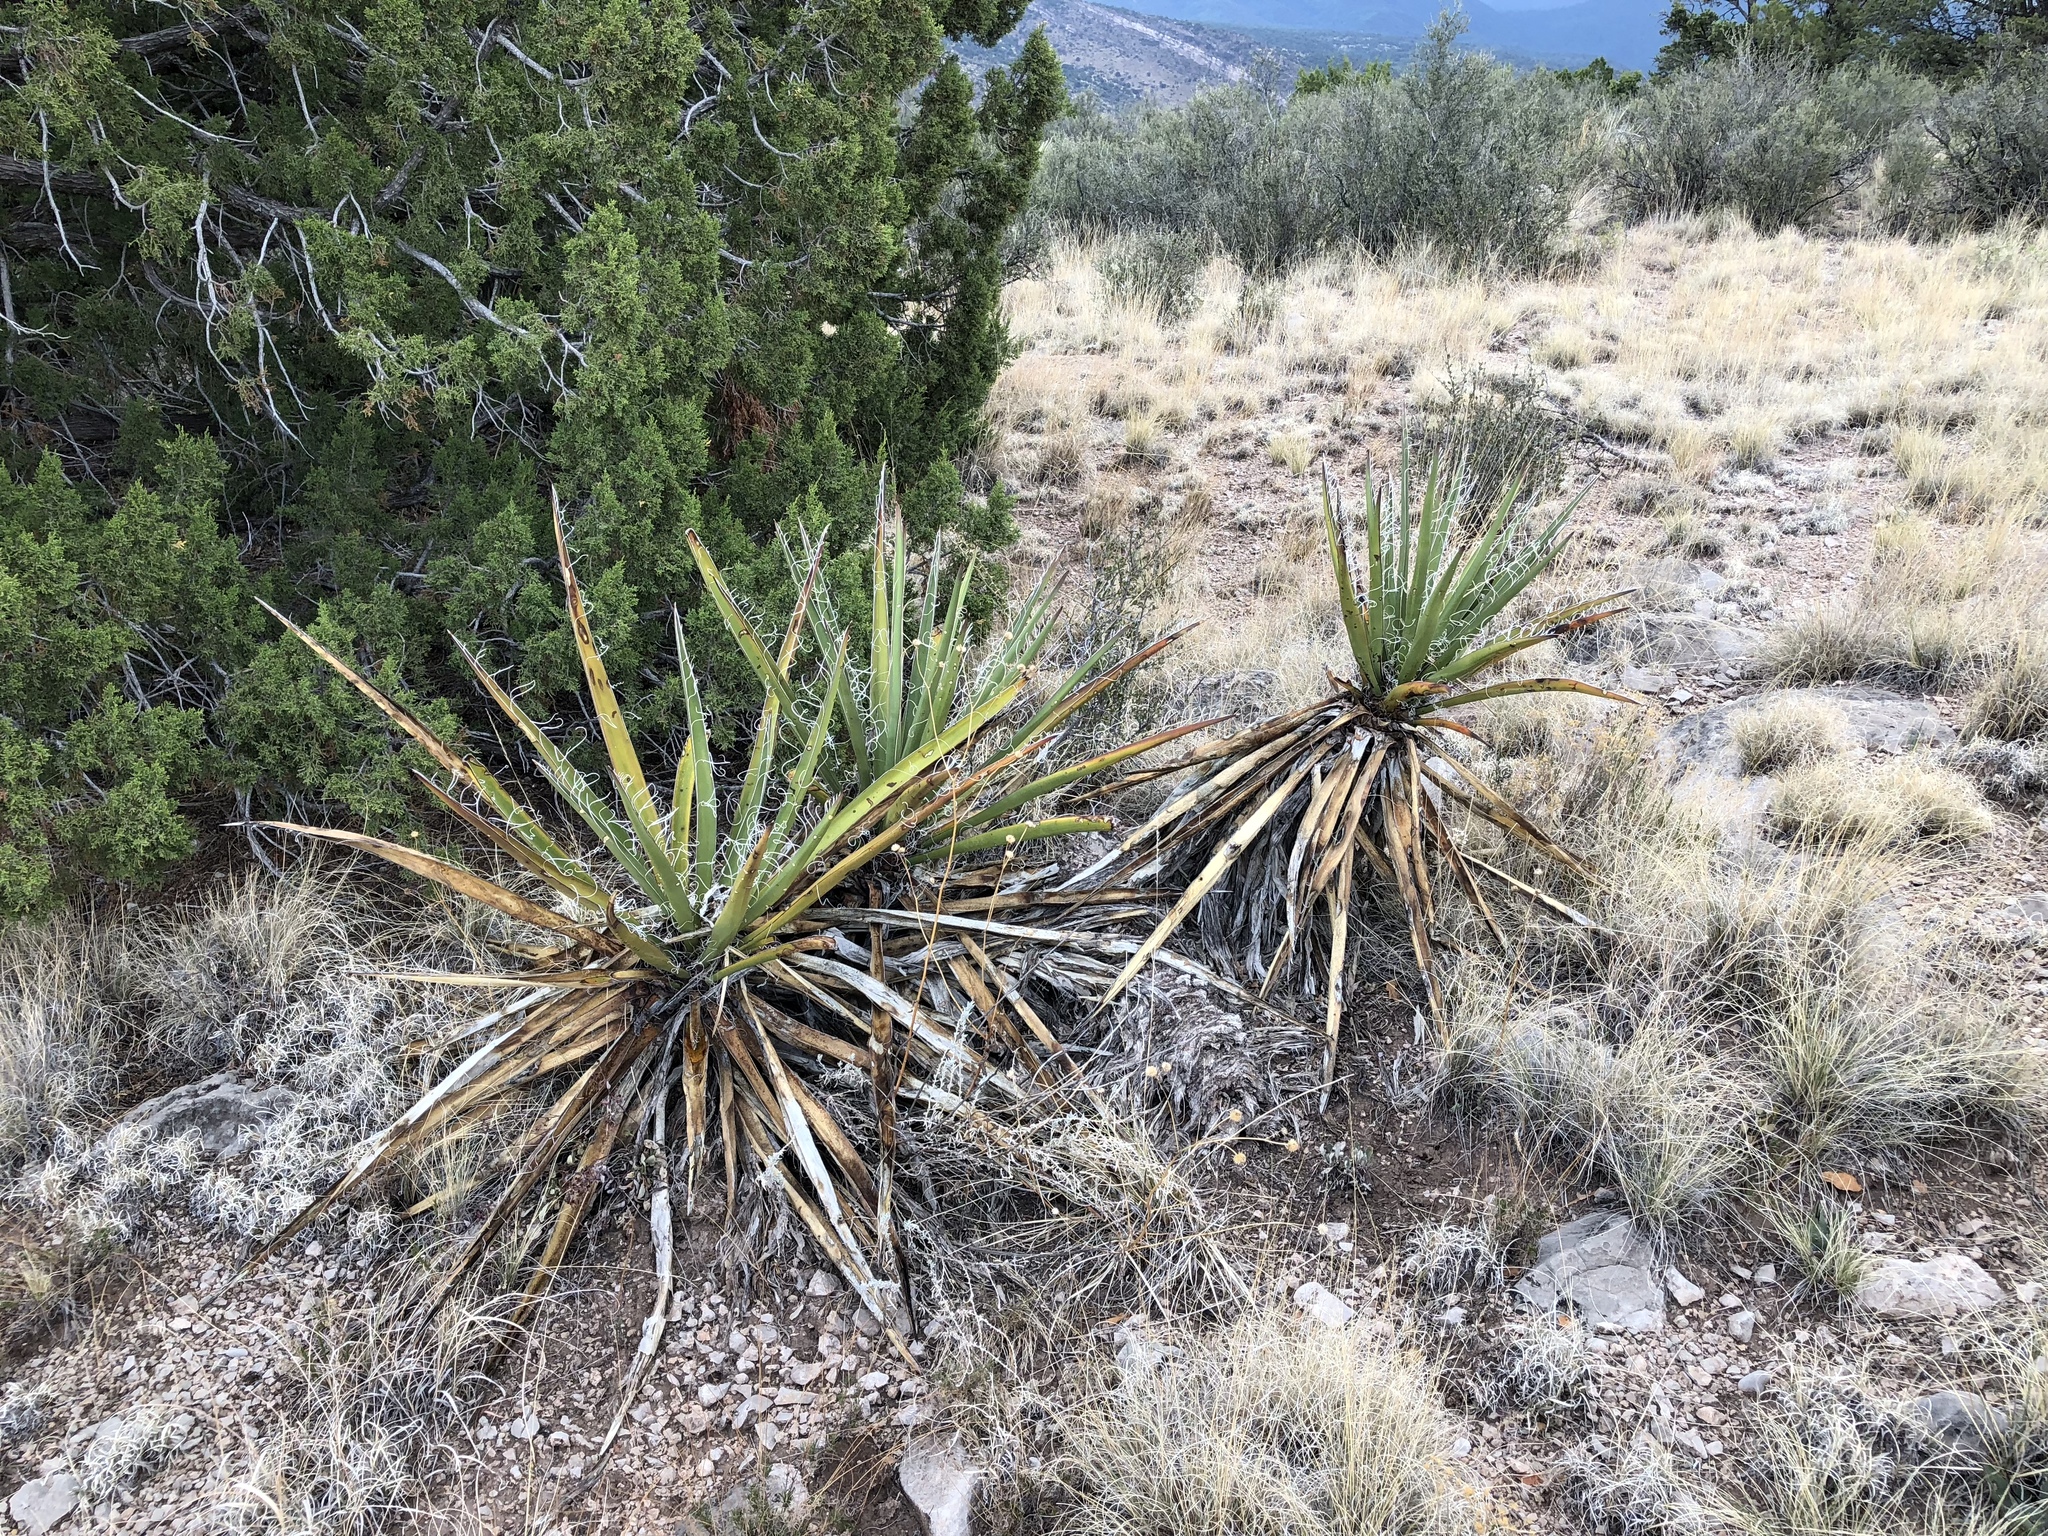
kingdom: Plantae
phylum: Tracheophyta
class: Liliopsida
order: Asparagales
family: Asparagaceae
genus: Yucca
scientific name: Yucca baccata
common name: Banana yucca
